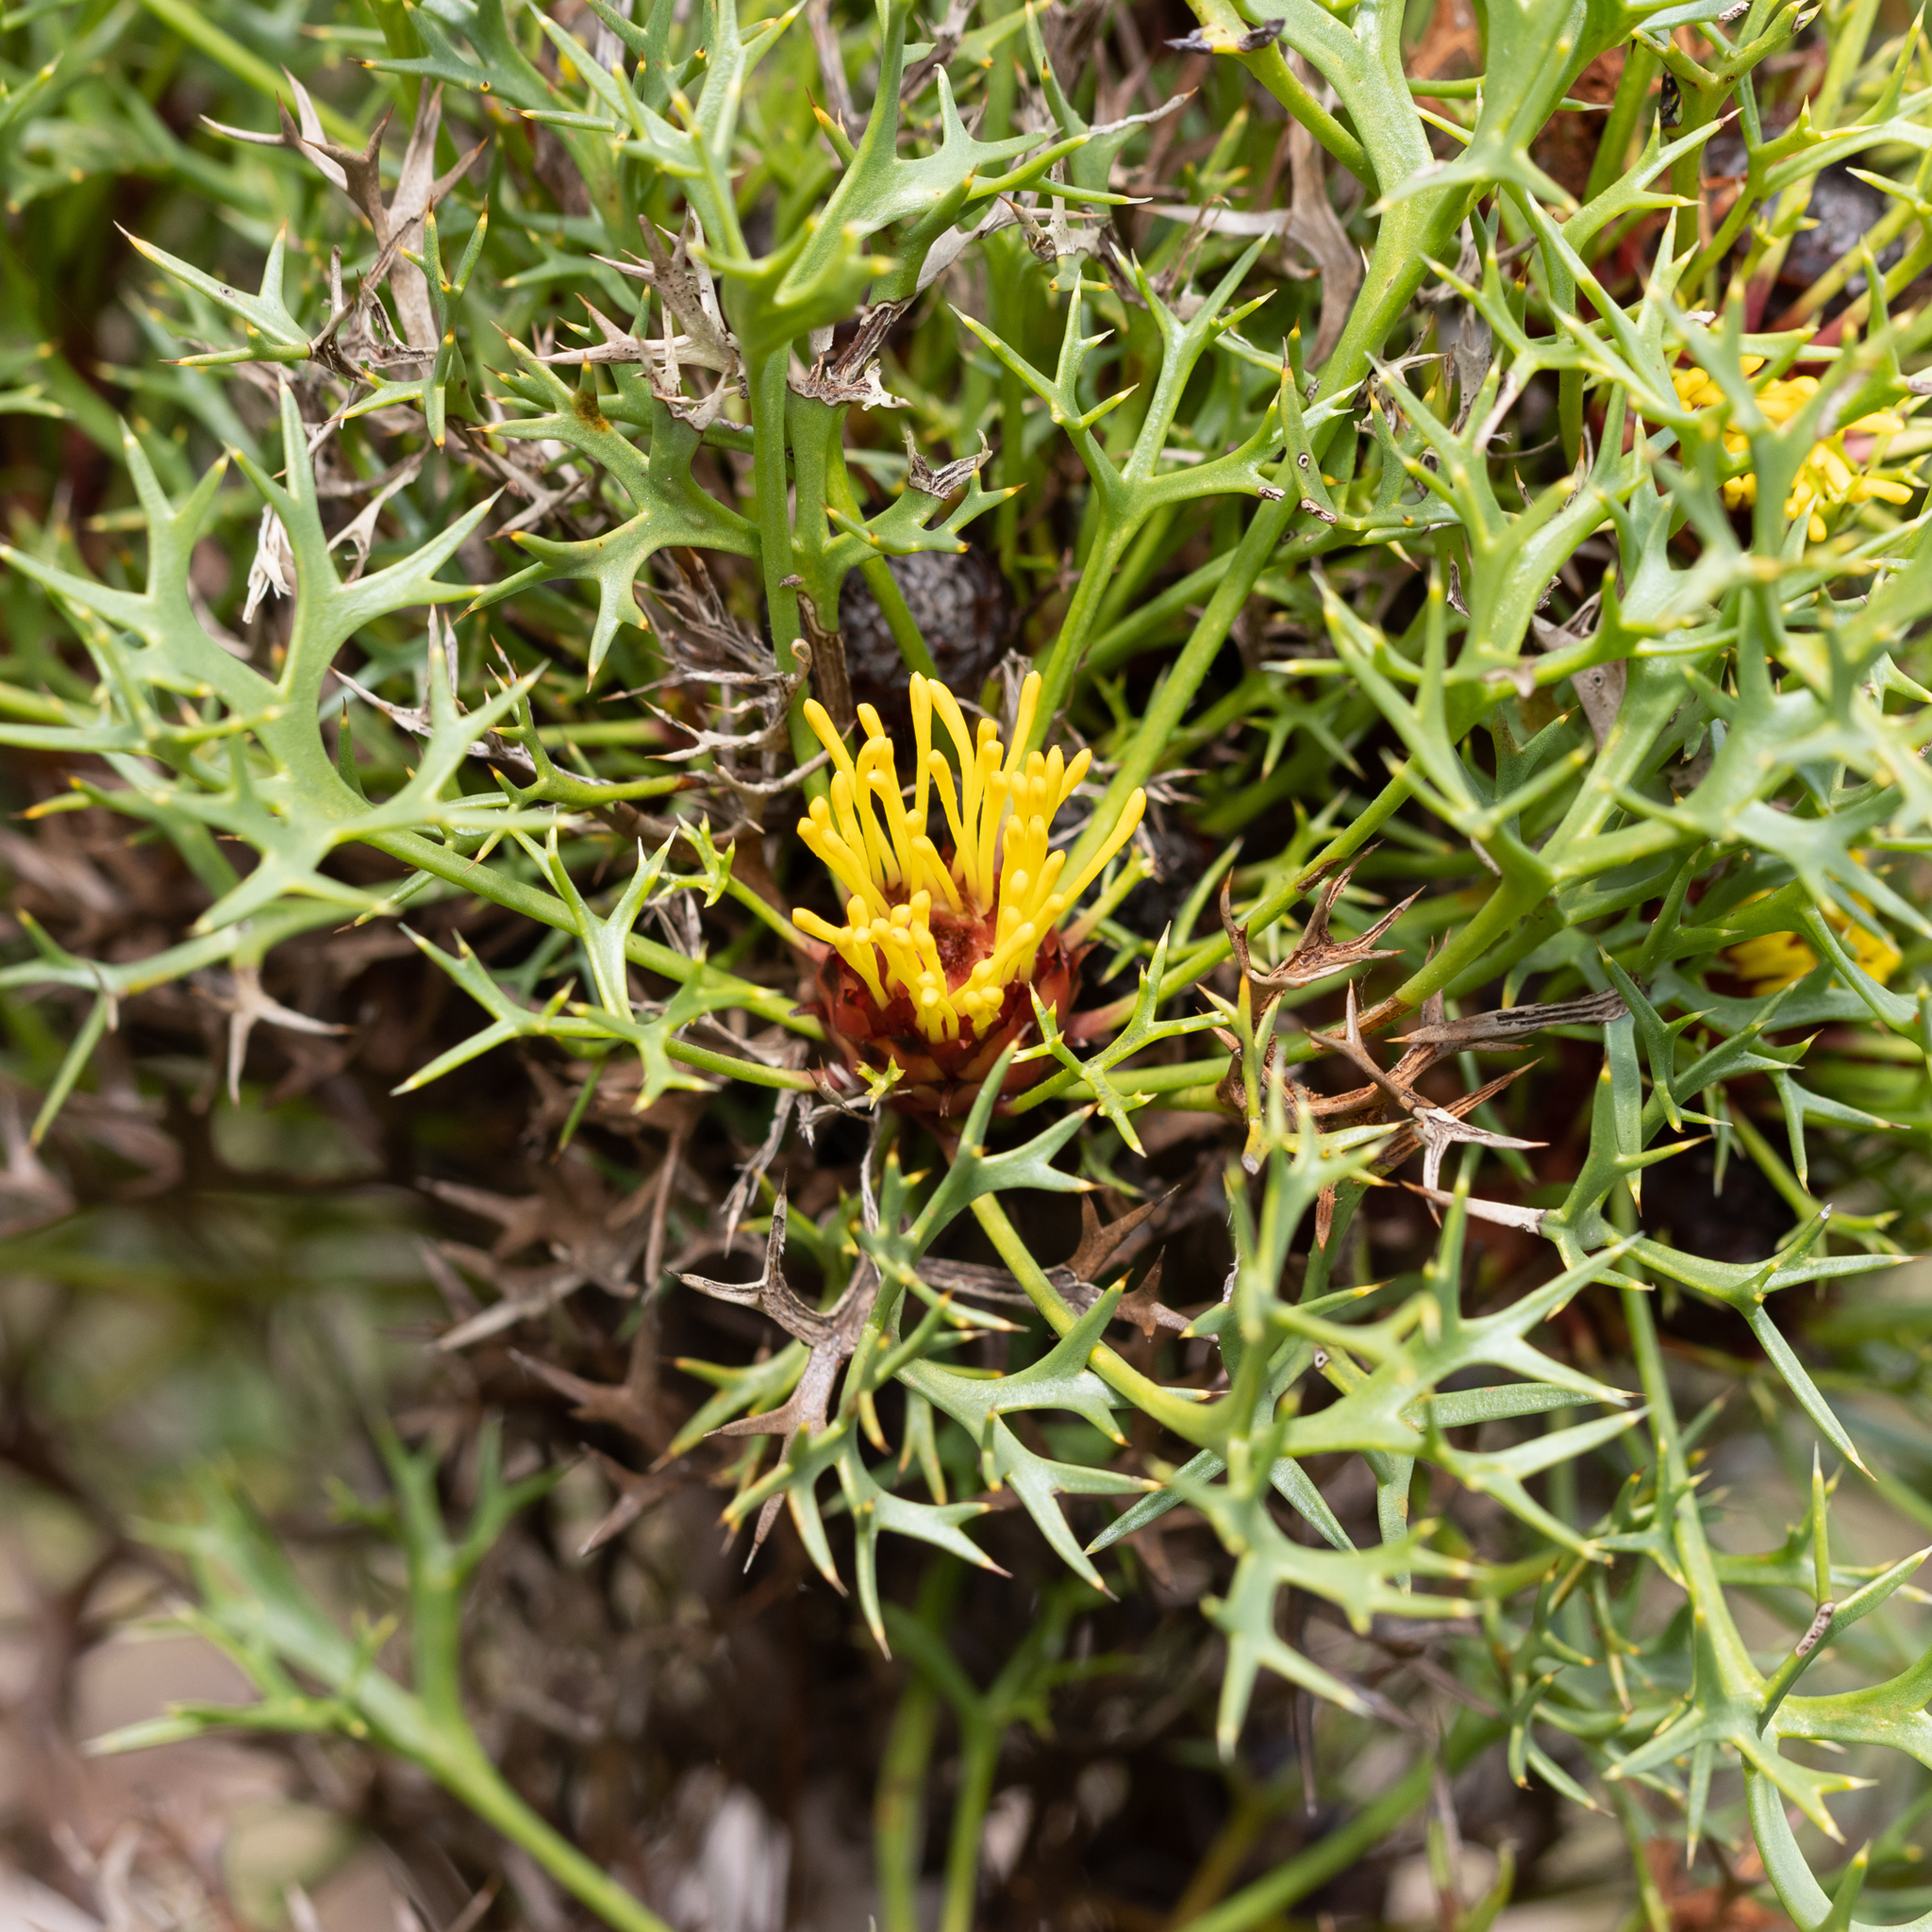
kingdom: Plantae
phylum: Tracheophyta
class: Magnoliopsida
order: Proteales
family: Proteaceae
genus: Isopogon
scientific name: Isopogon ceratophyllus
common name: Horny cone-bush
